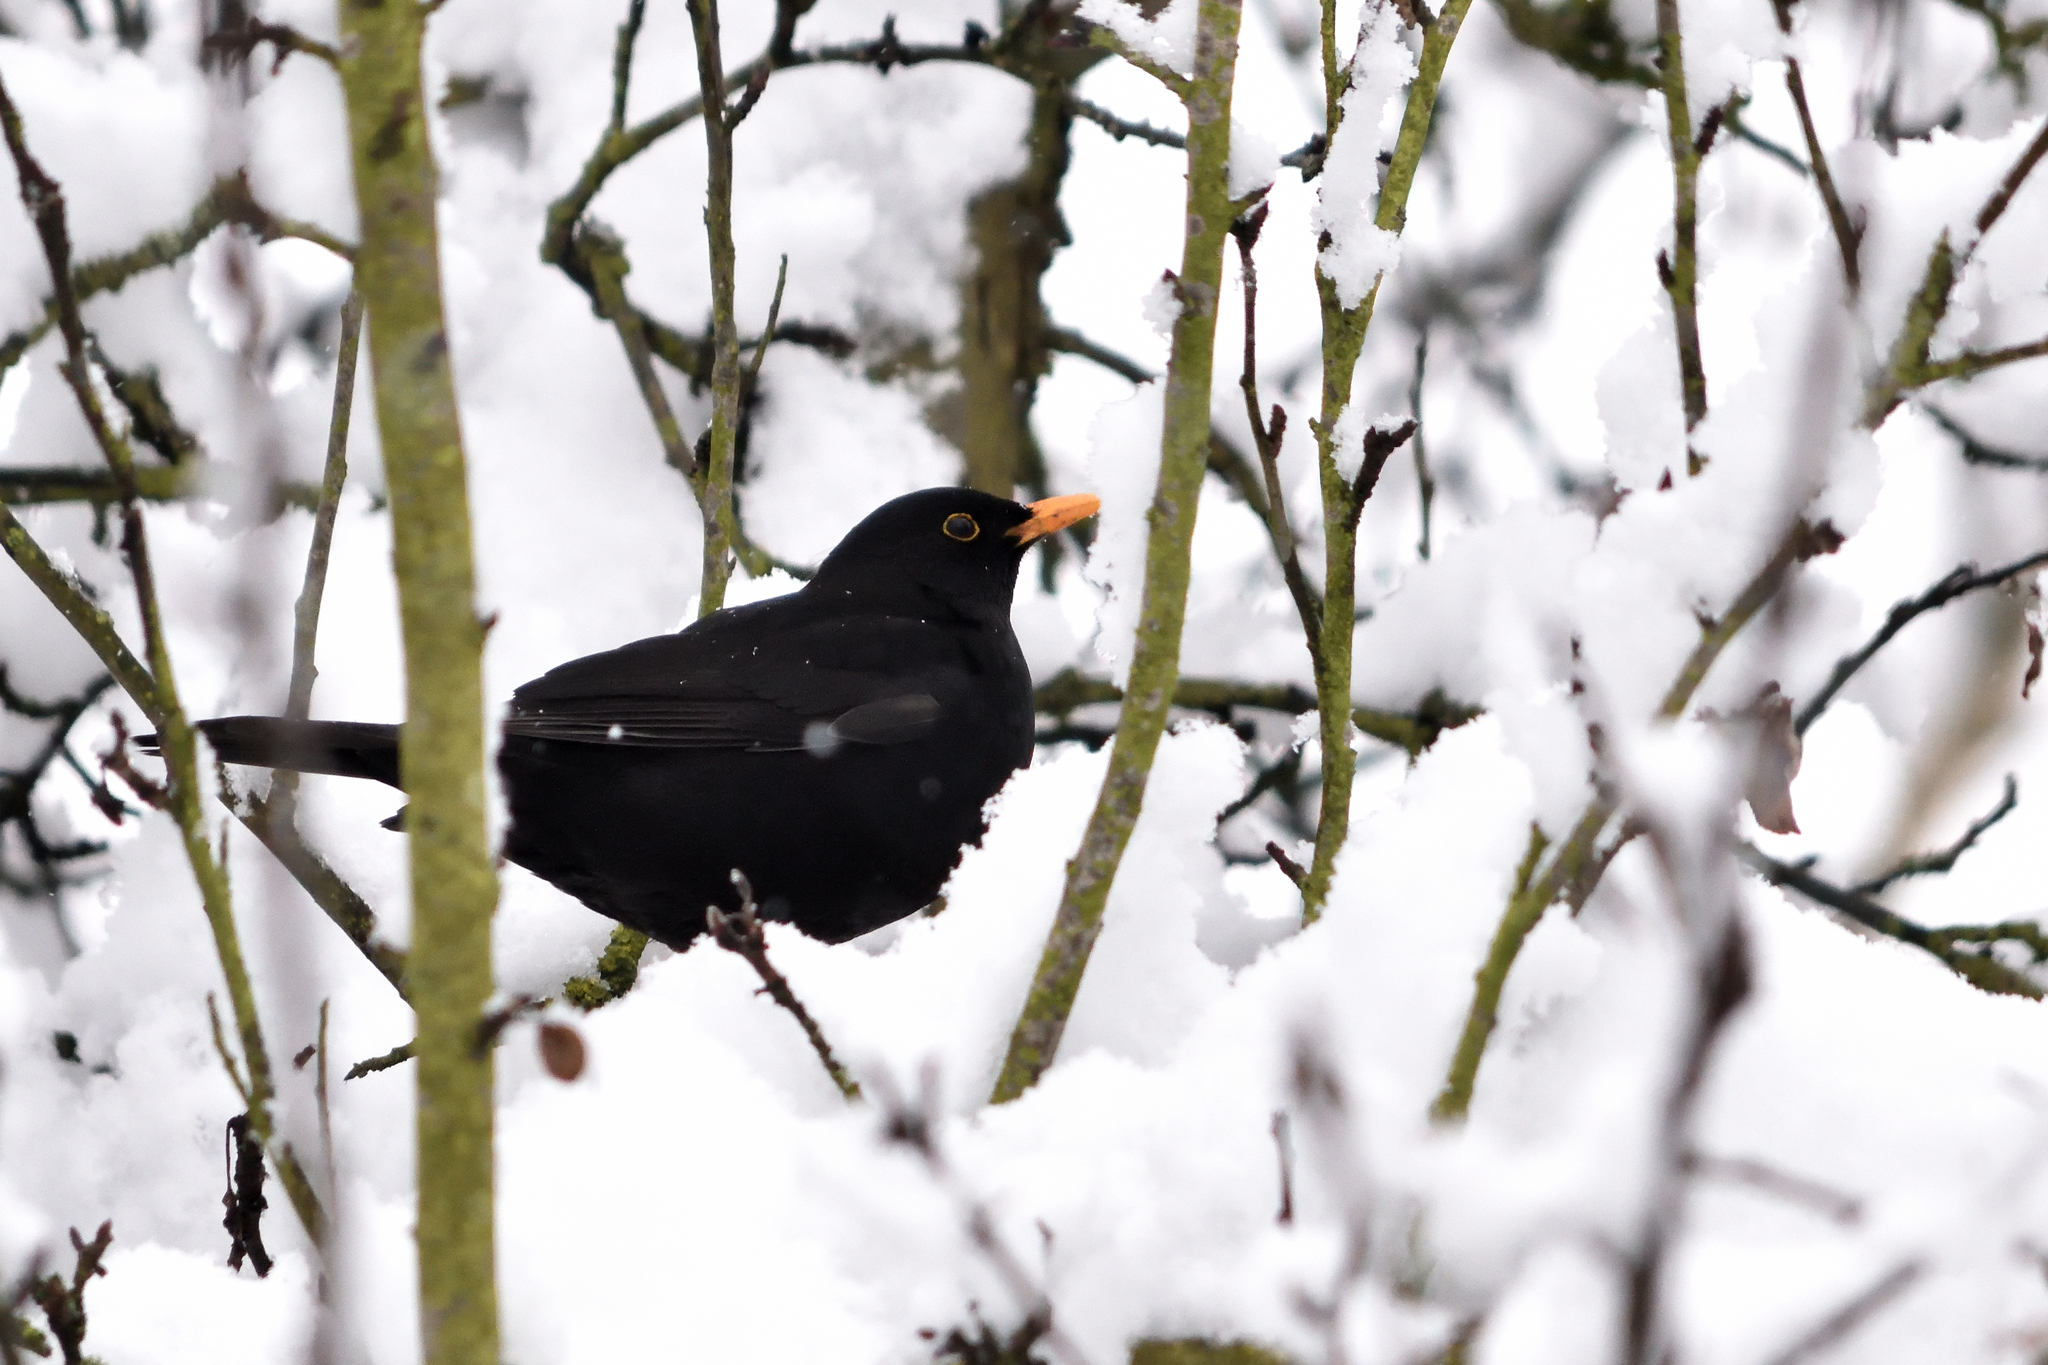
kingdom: Animalia
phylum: Chordata
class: Aves
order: Passeriformes
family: Turdidae
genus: Turdus
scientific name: Turdus merula
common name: Common blackbird
